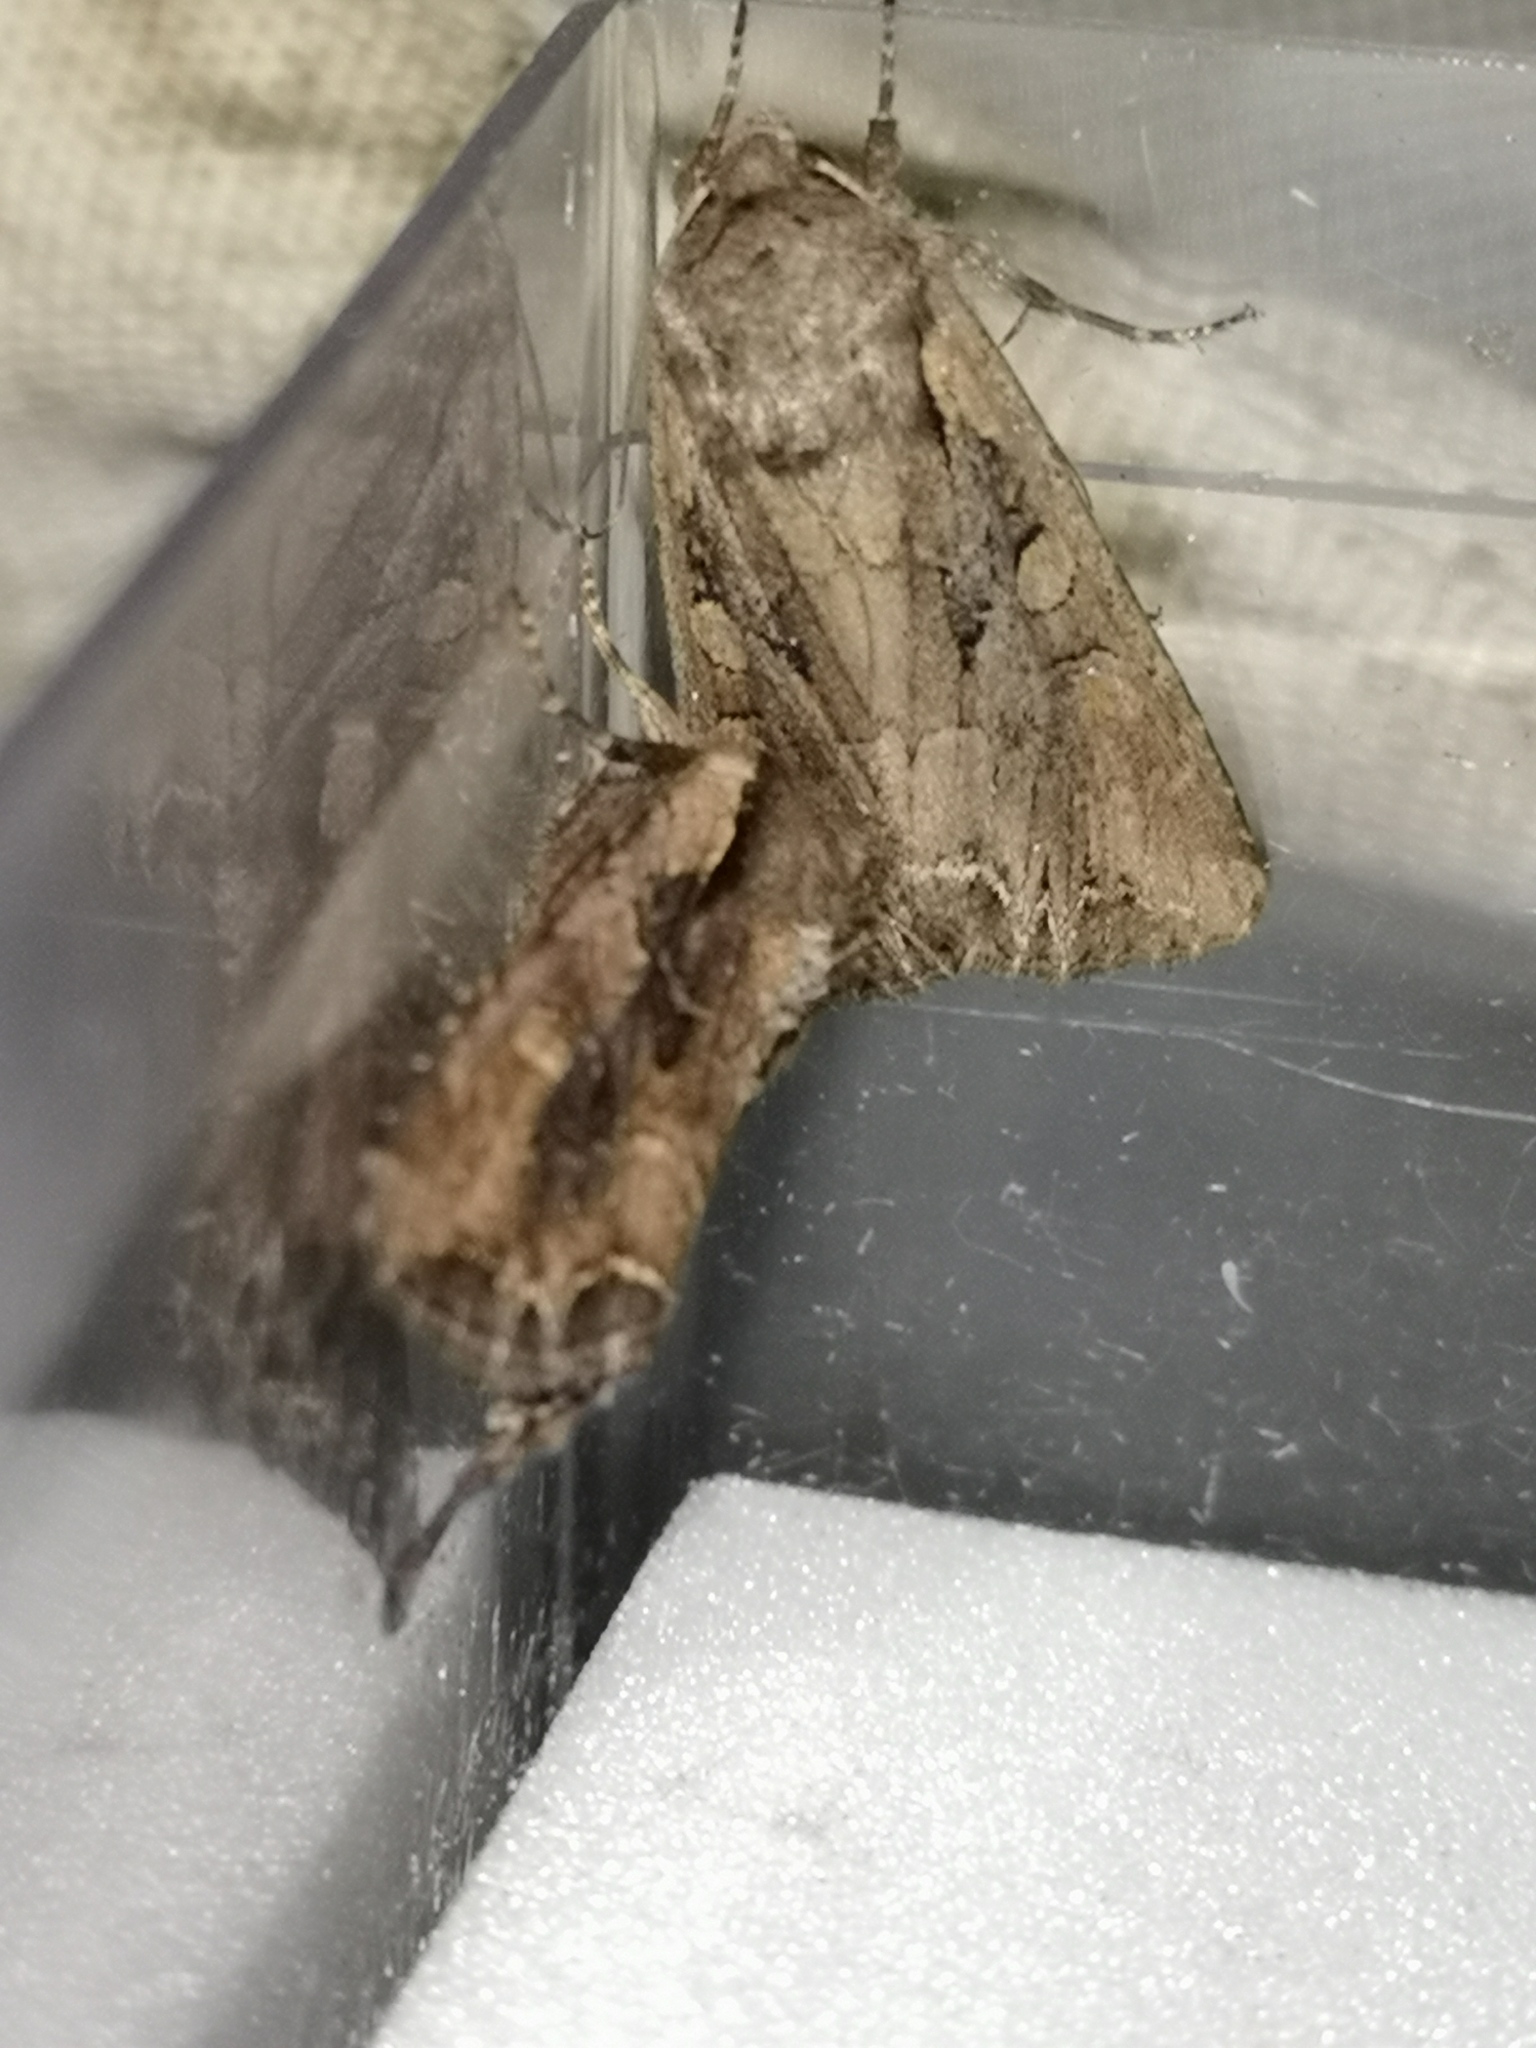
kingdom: Animalia
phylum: Arthropoda
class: Insecta
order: Lepidoptera
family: Noctuidae
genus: Lacanobia
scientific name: Lacanobia suasa
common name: Dog's tooth
